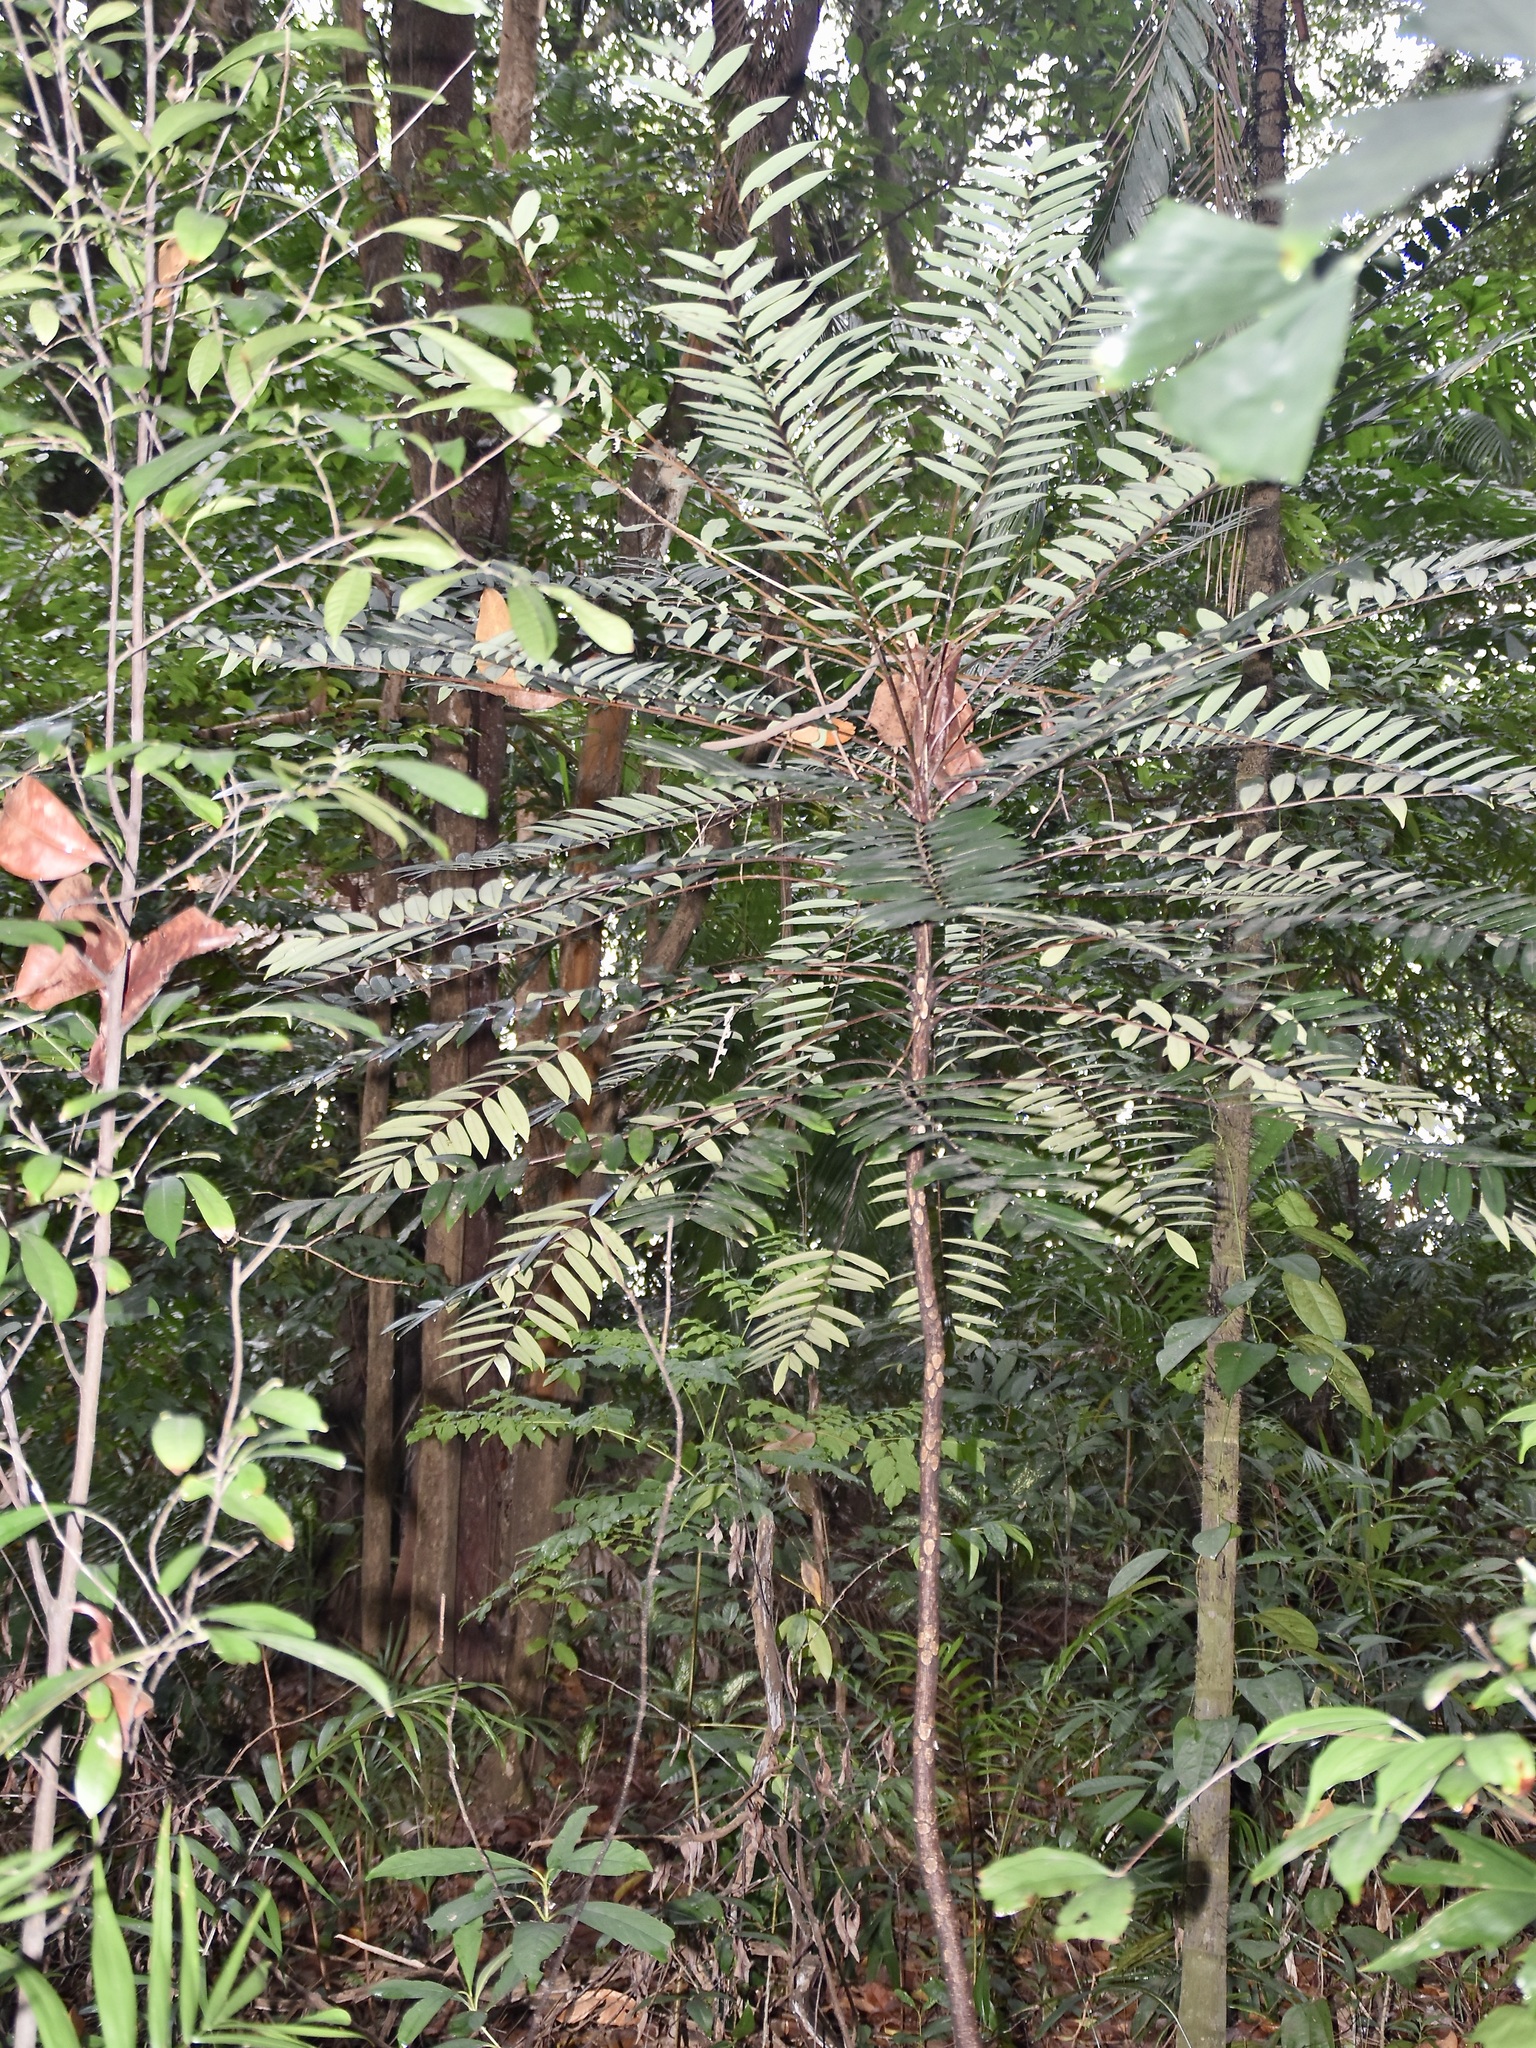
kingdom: Plantae
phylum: Tracheophyta
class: Magnoliopsida
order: Sapindales
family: Simaroubaceae
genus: Eurycoma
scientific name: Eurycoma longifolia
